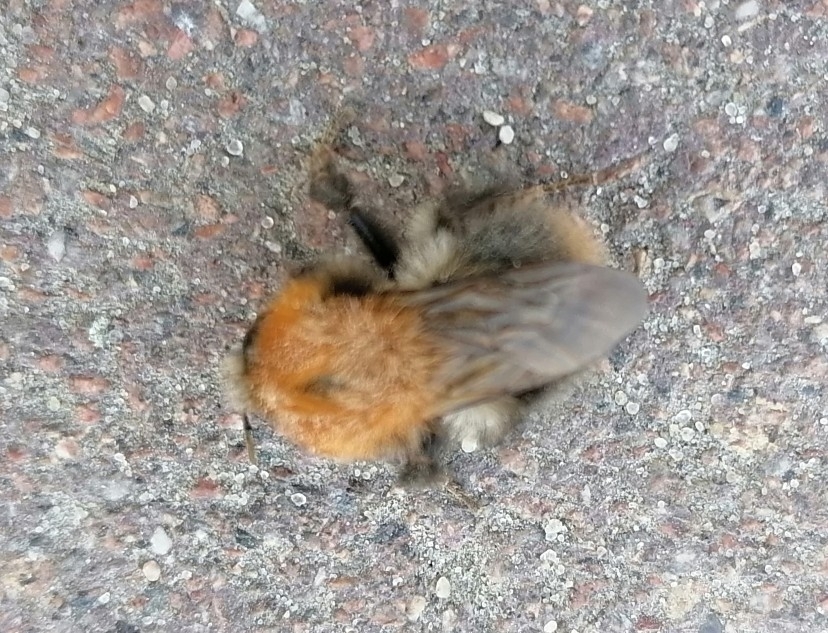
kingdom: Animalia
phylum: Arthropoda
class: Insecta
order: Hymenoptera
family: Apidae
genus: Bombus
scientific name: Bombus pascuorum
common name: Common carder bee
